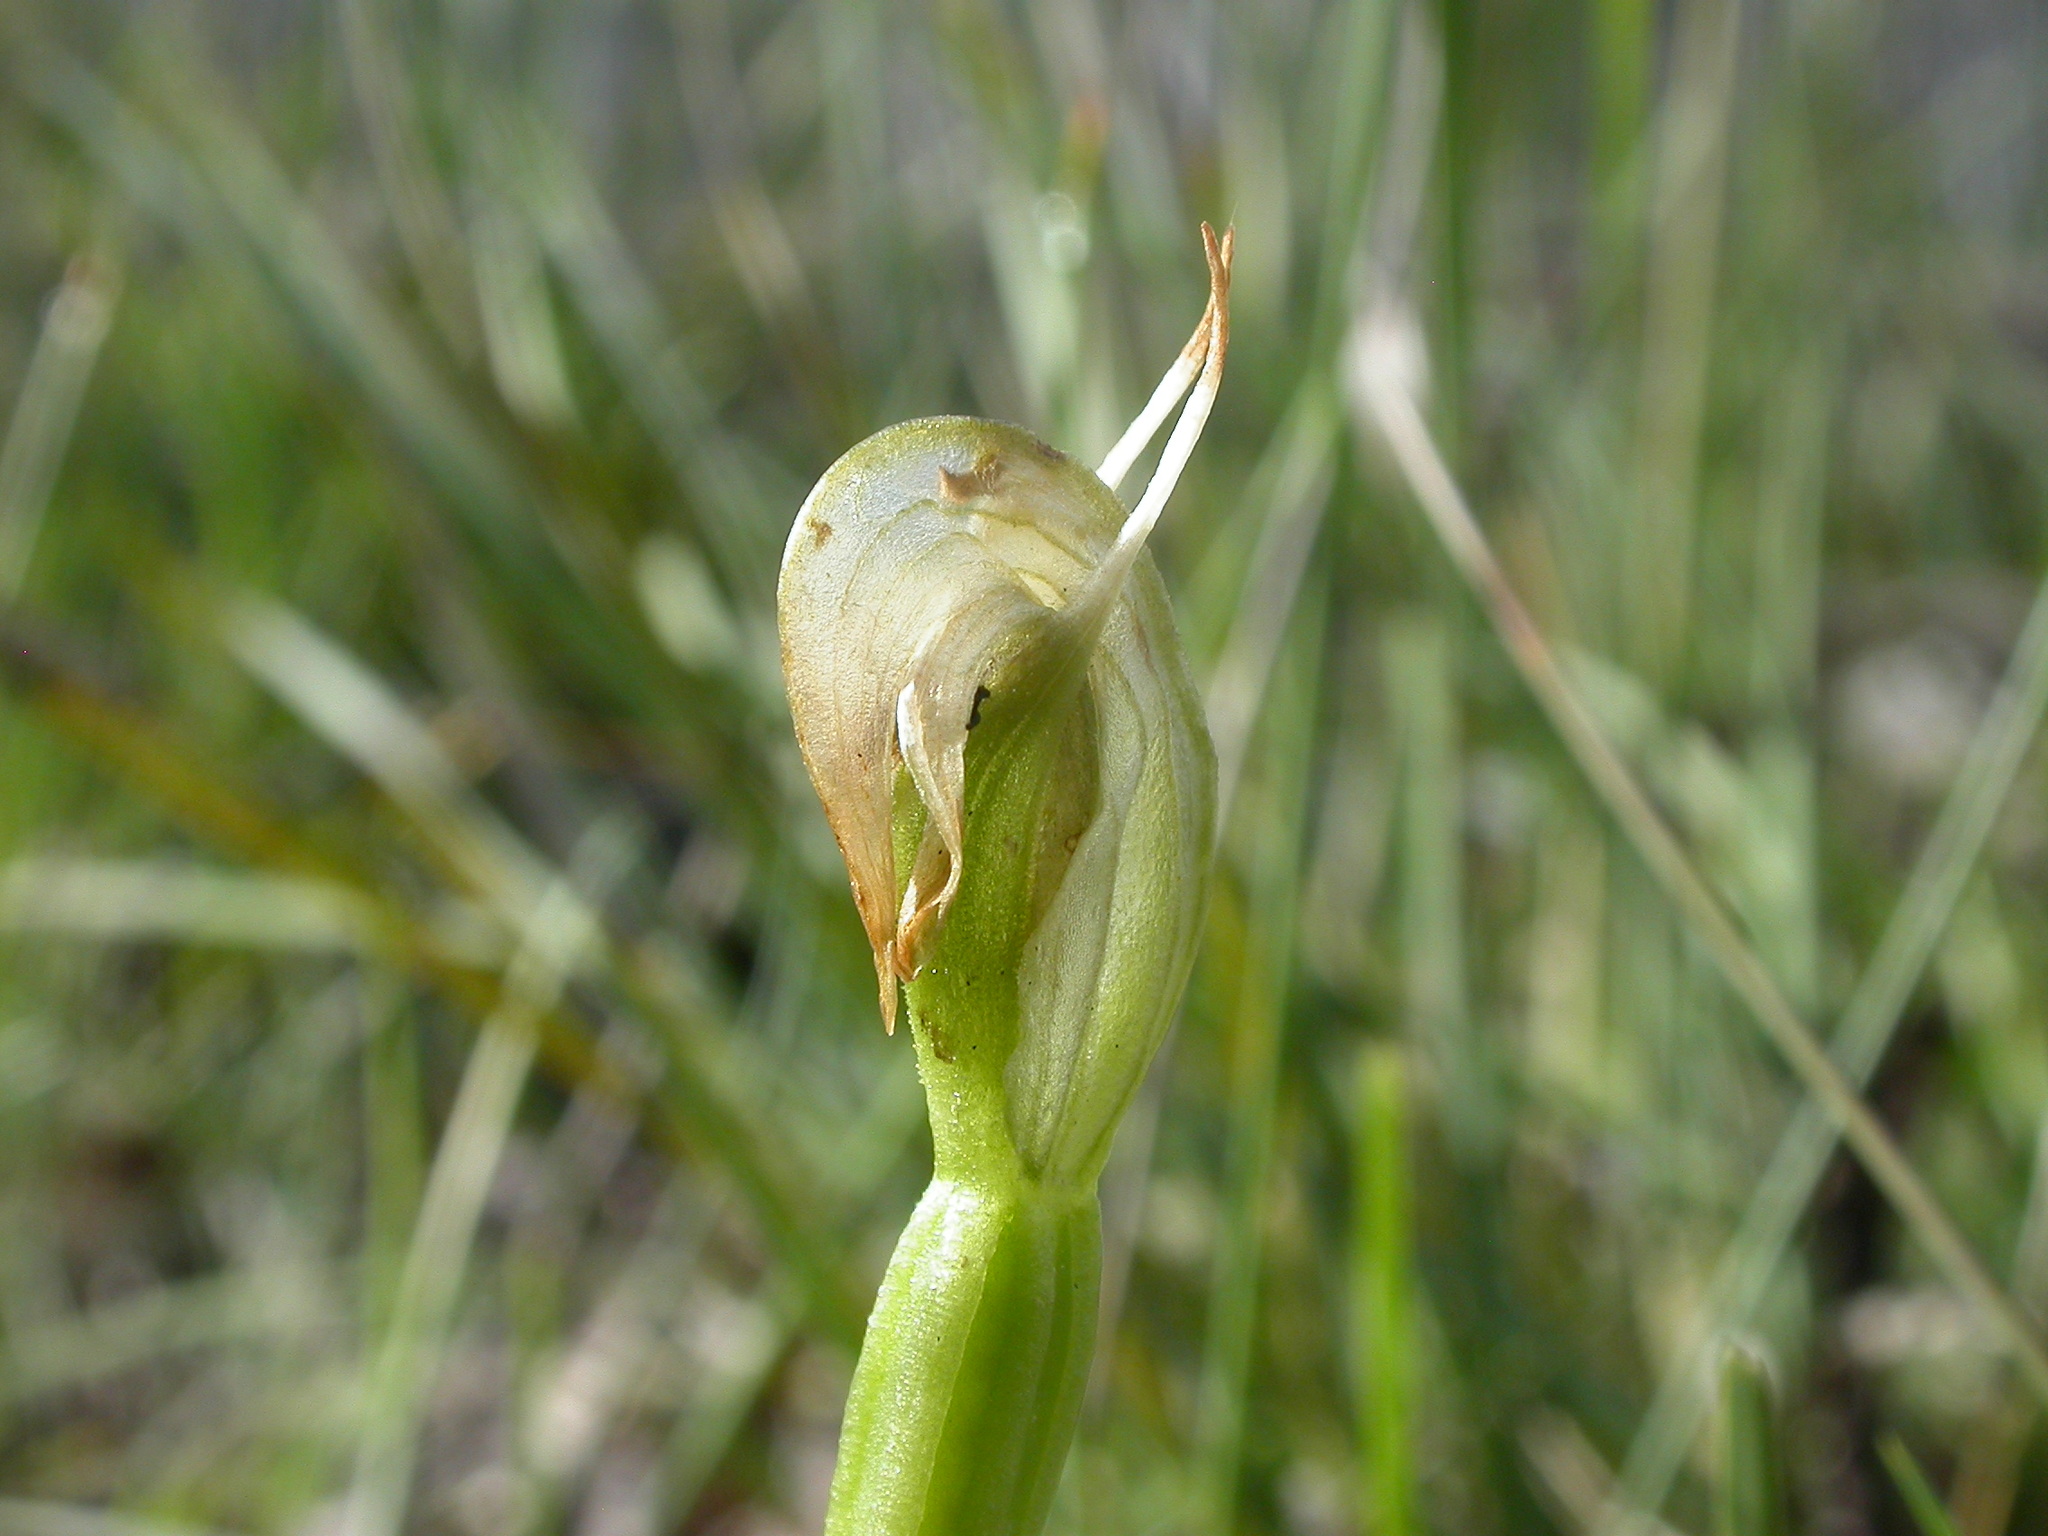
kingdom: Plantae
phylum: Tracheophyta
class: Liliopsida
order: Asparagales
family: Orchidaceae
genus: Pterostylis
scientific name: Pterostylis nutans
